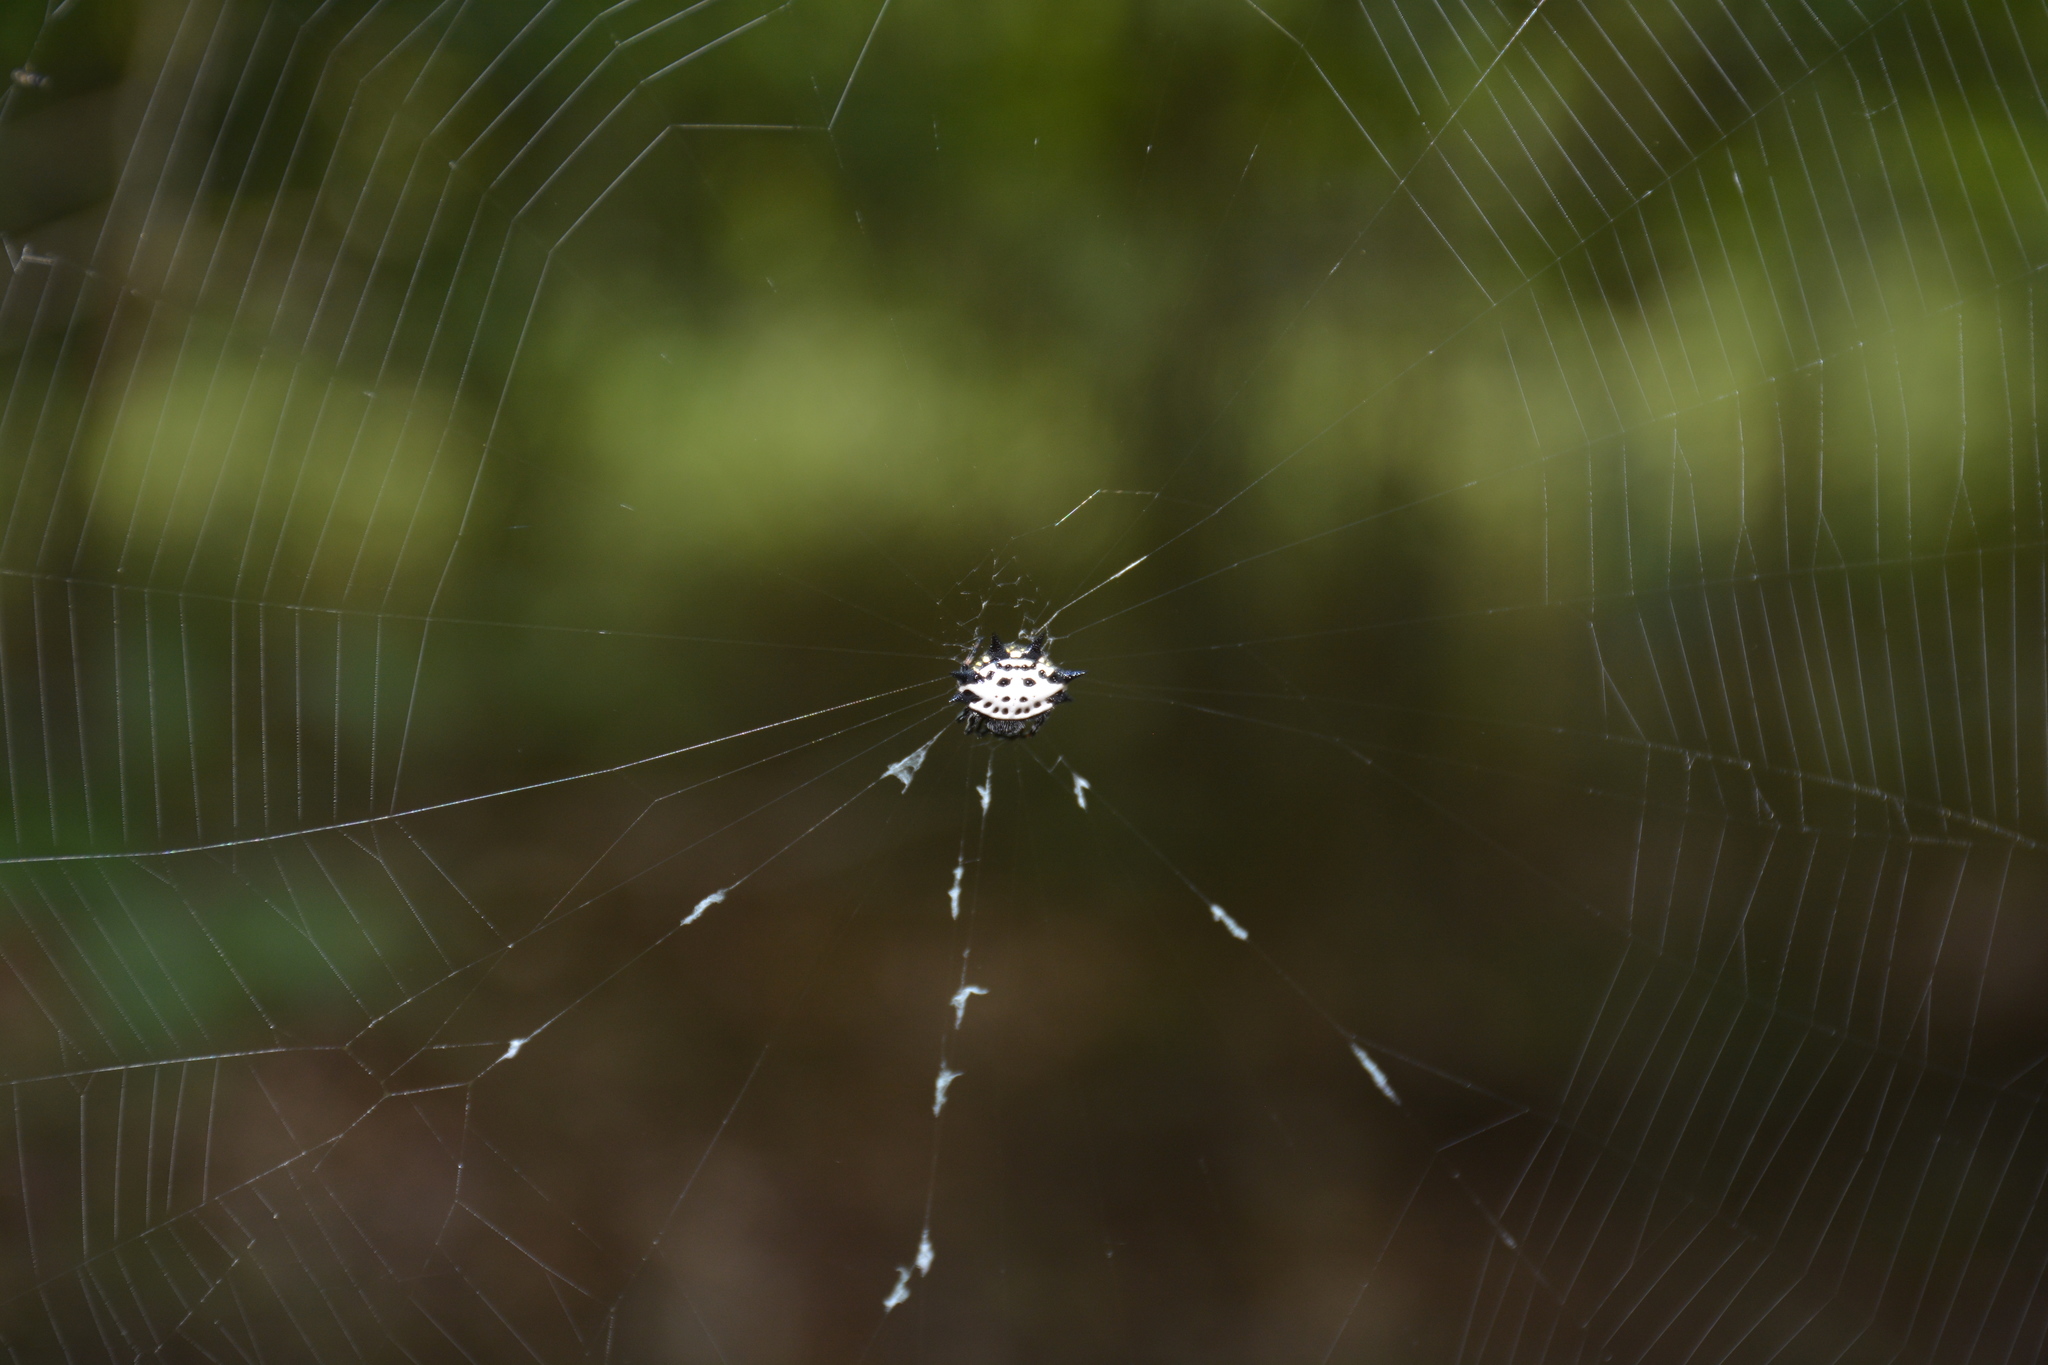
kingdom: Animalia
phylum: Arthropoda
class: Arachnida
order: Araneae
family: Araneidae
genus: Gasteracantha
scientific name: Gasteracantha cancriformis
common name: Orb weavers
